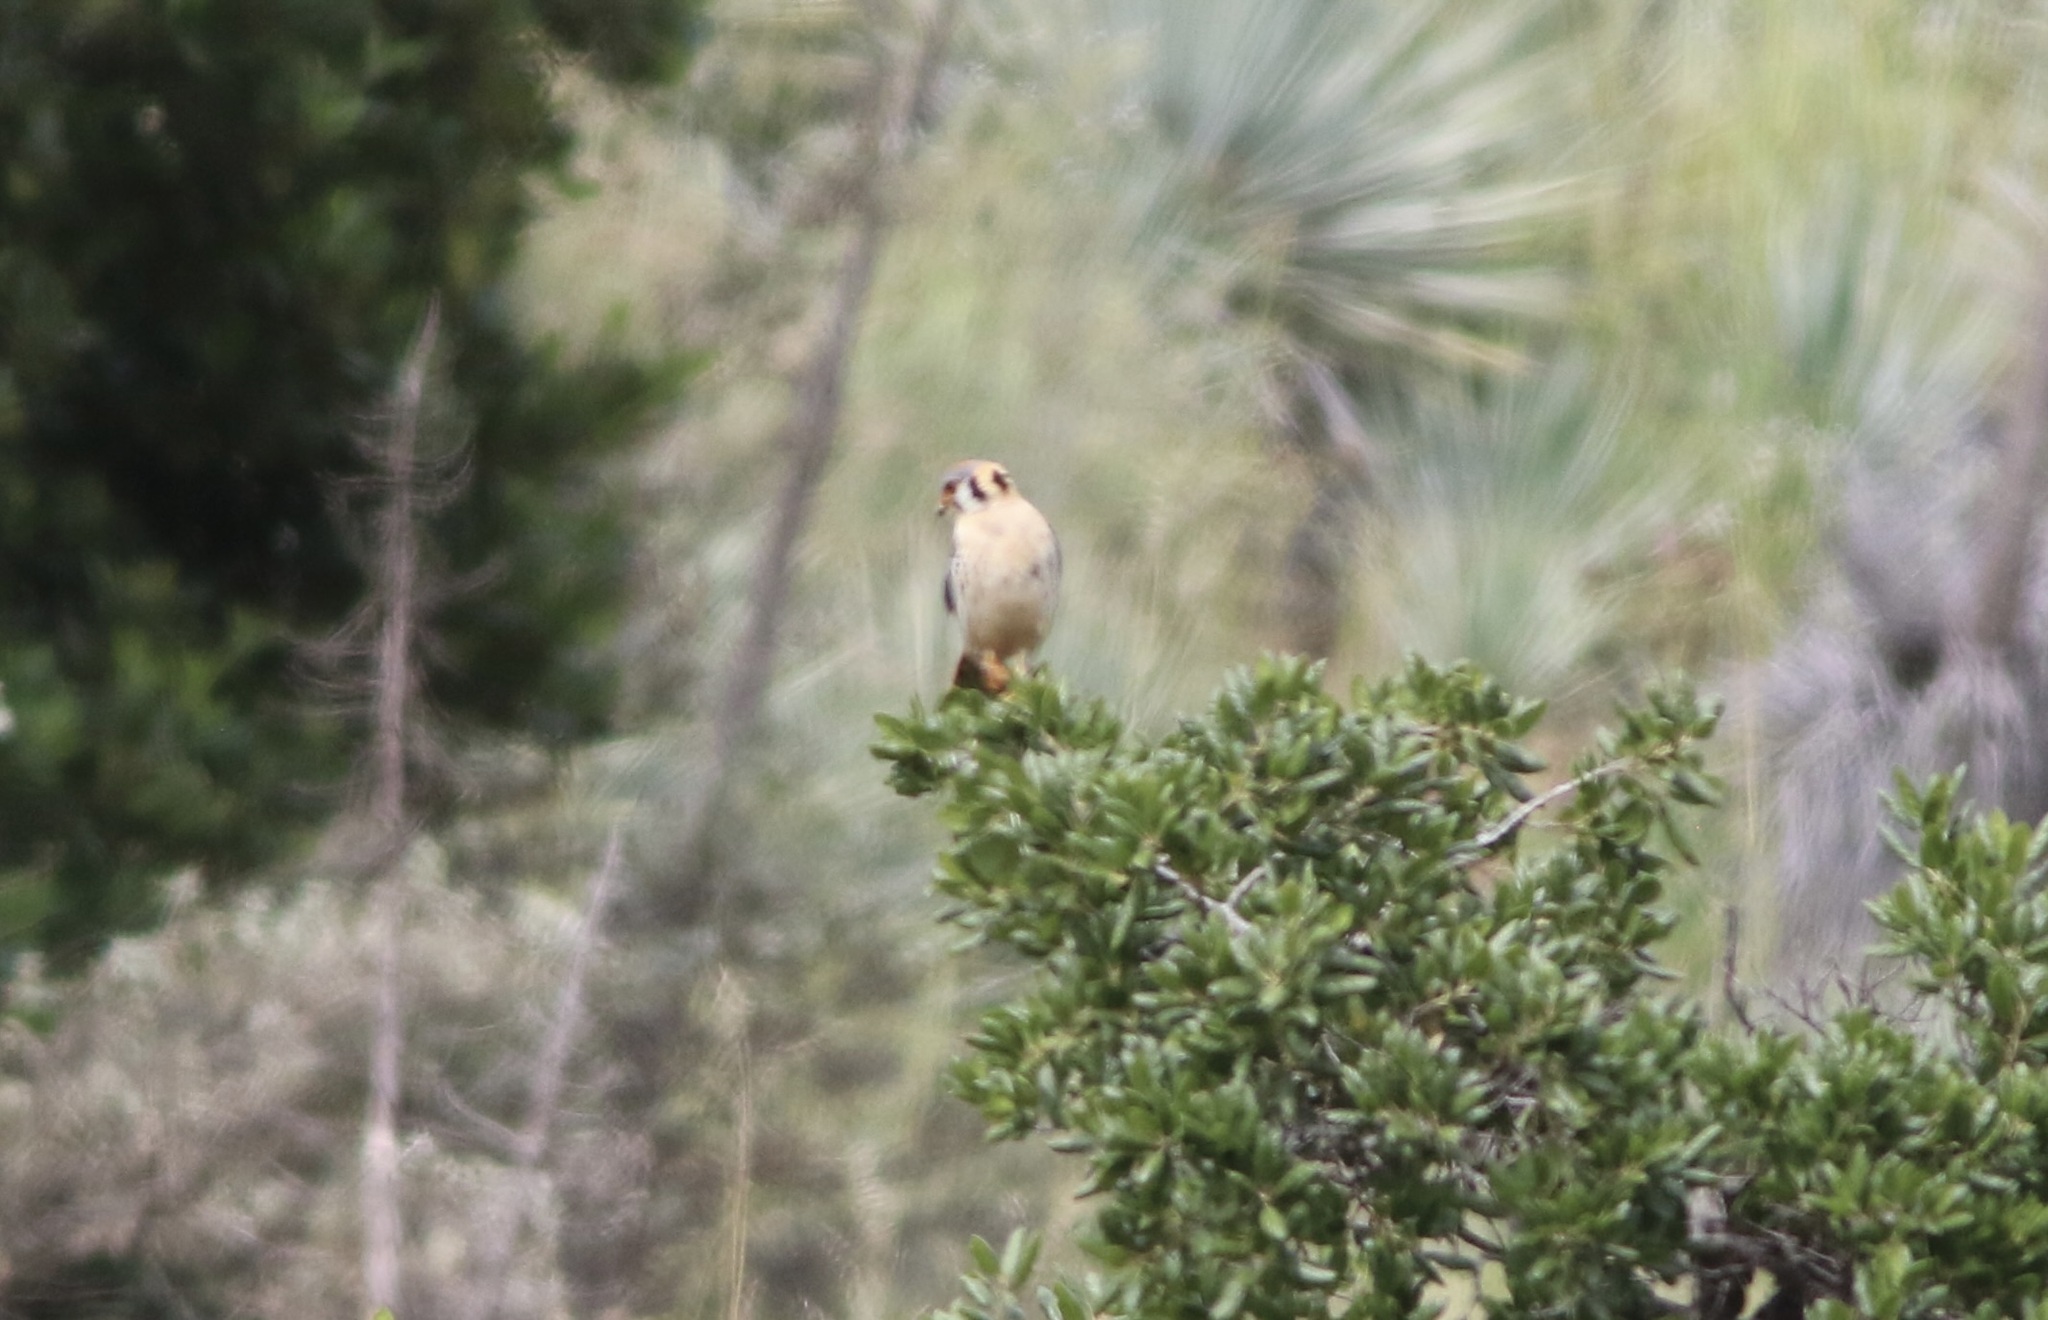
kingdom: Animalia
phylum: Chordata
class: Aves
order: Falconiformes
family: Falconidae
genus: Falco
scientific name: Falco sparverius
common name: American kestrel
